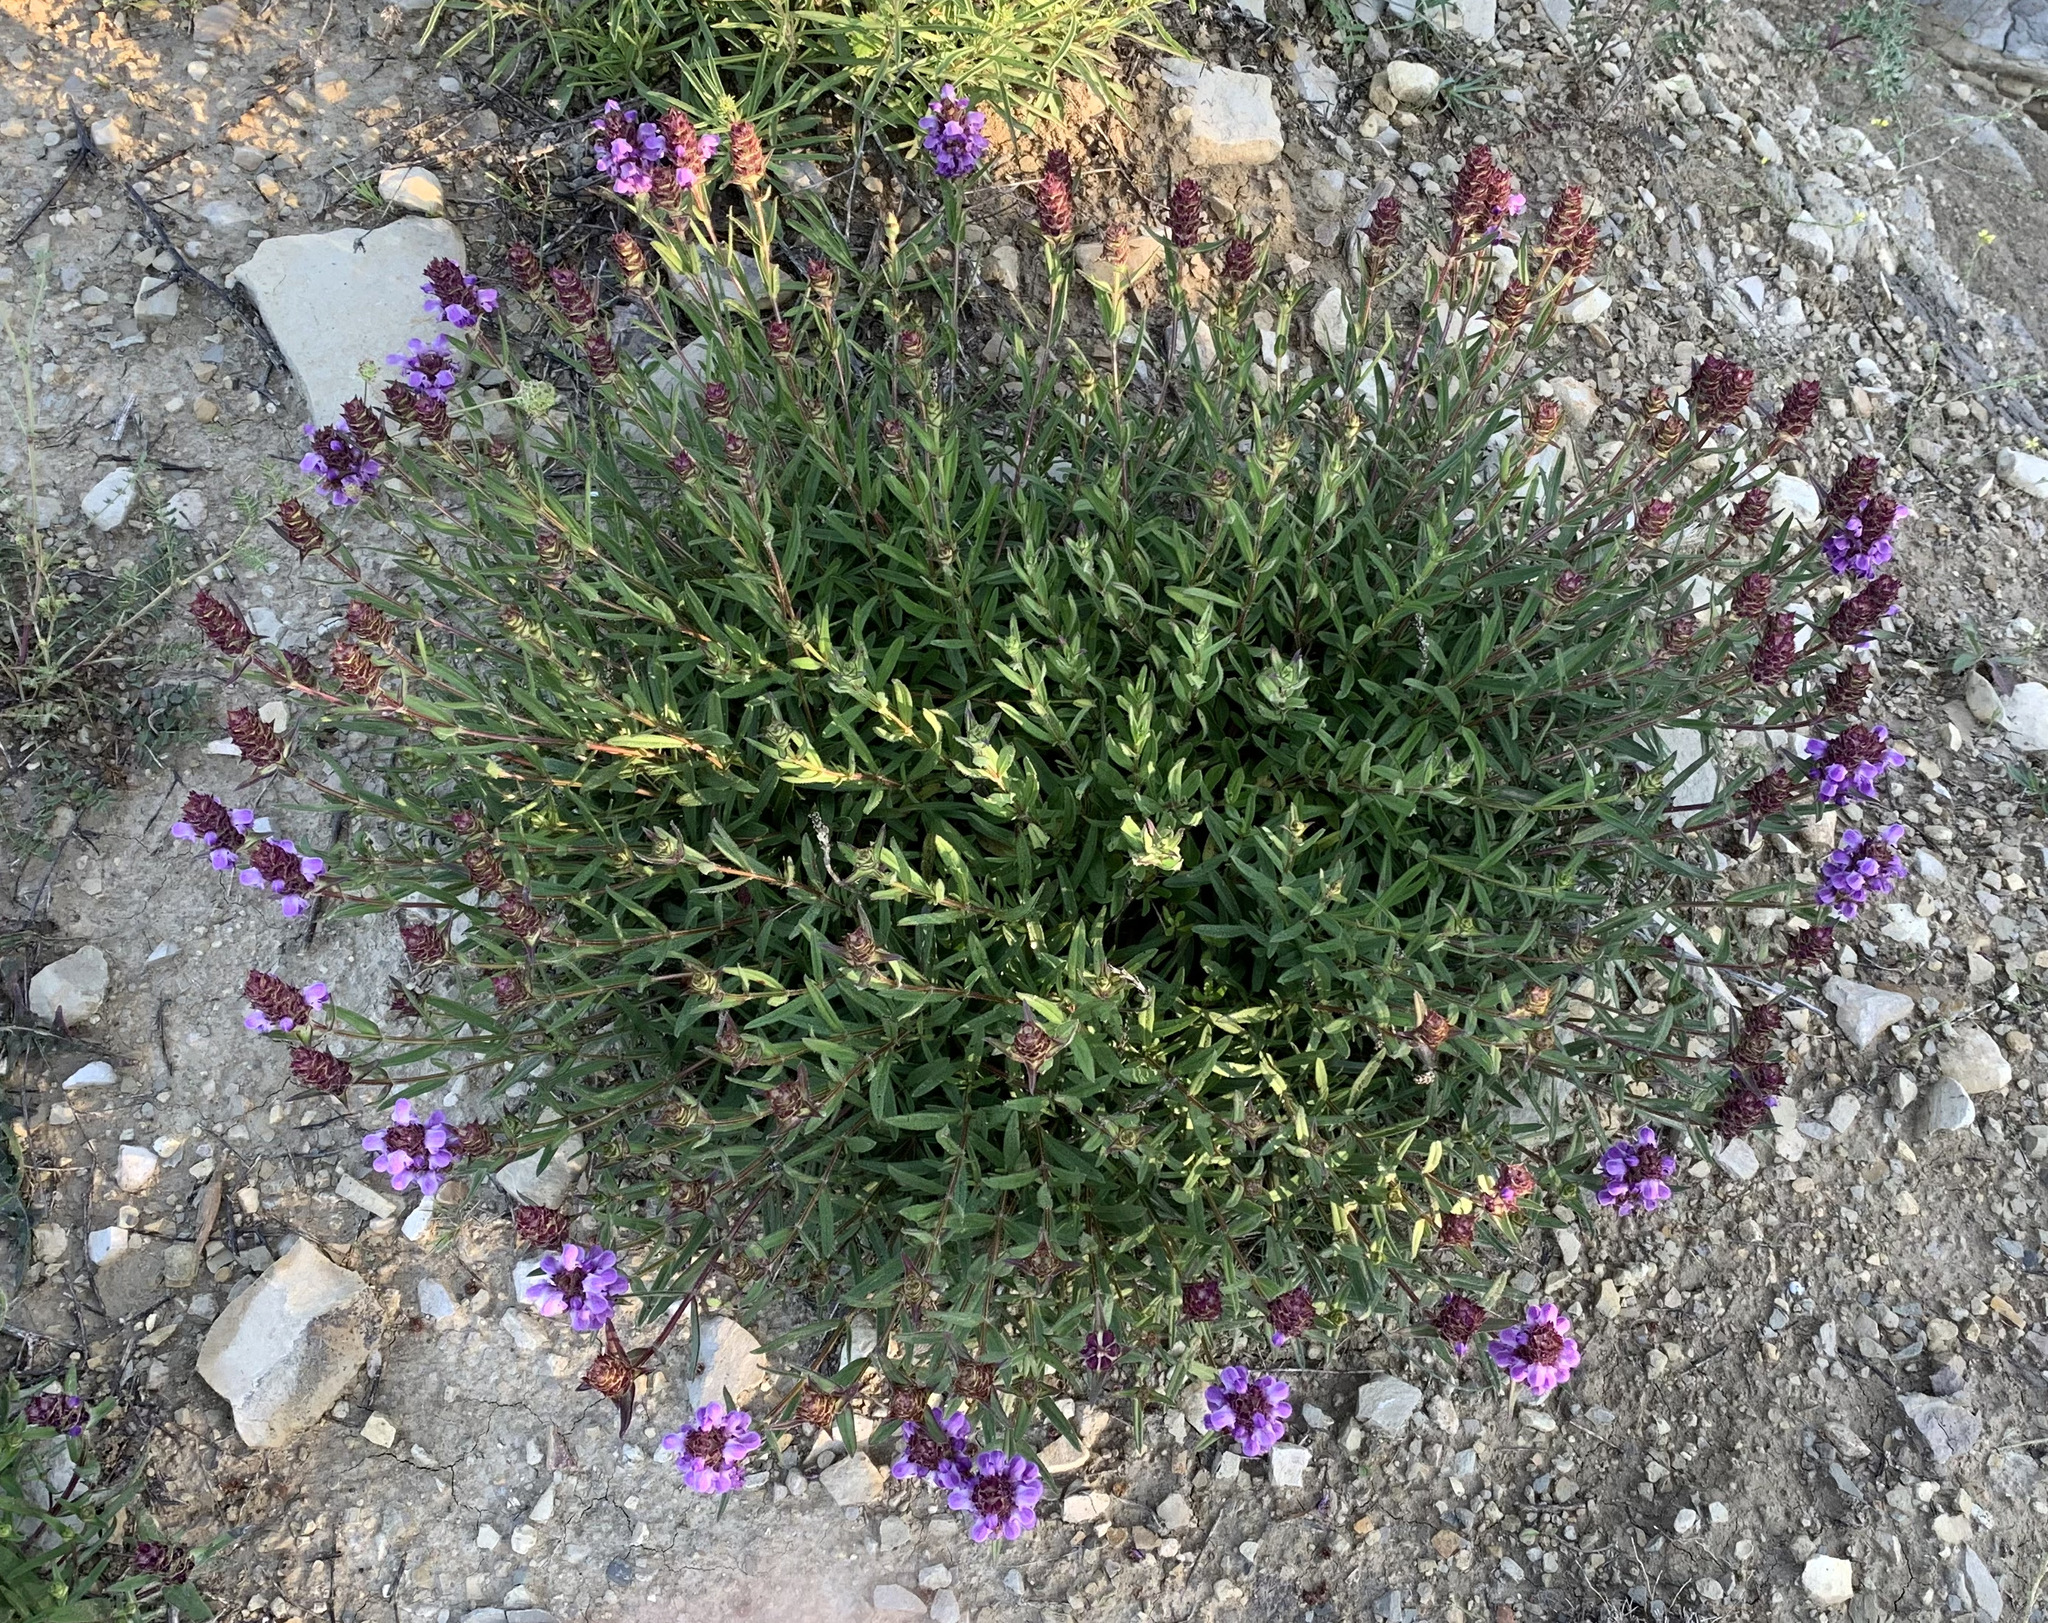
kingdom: Plantae
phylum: Tracheophyta
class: Magnoliopsida
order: Lamiales
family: Lamiaceae
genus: Prunella
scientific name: Prunella hyssopifolia
